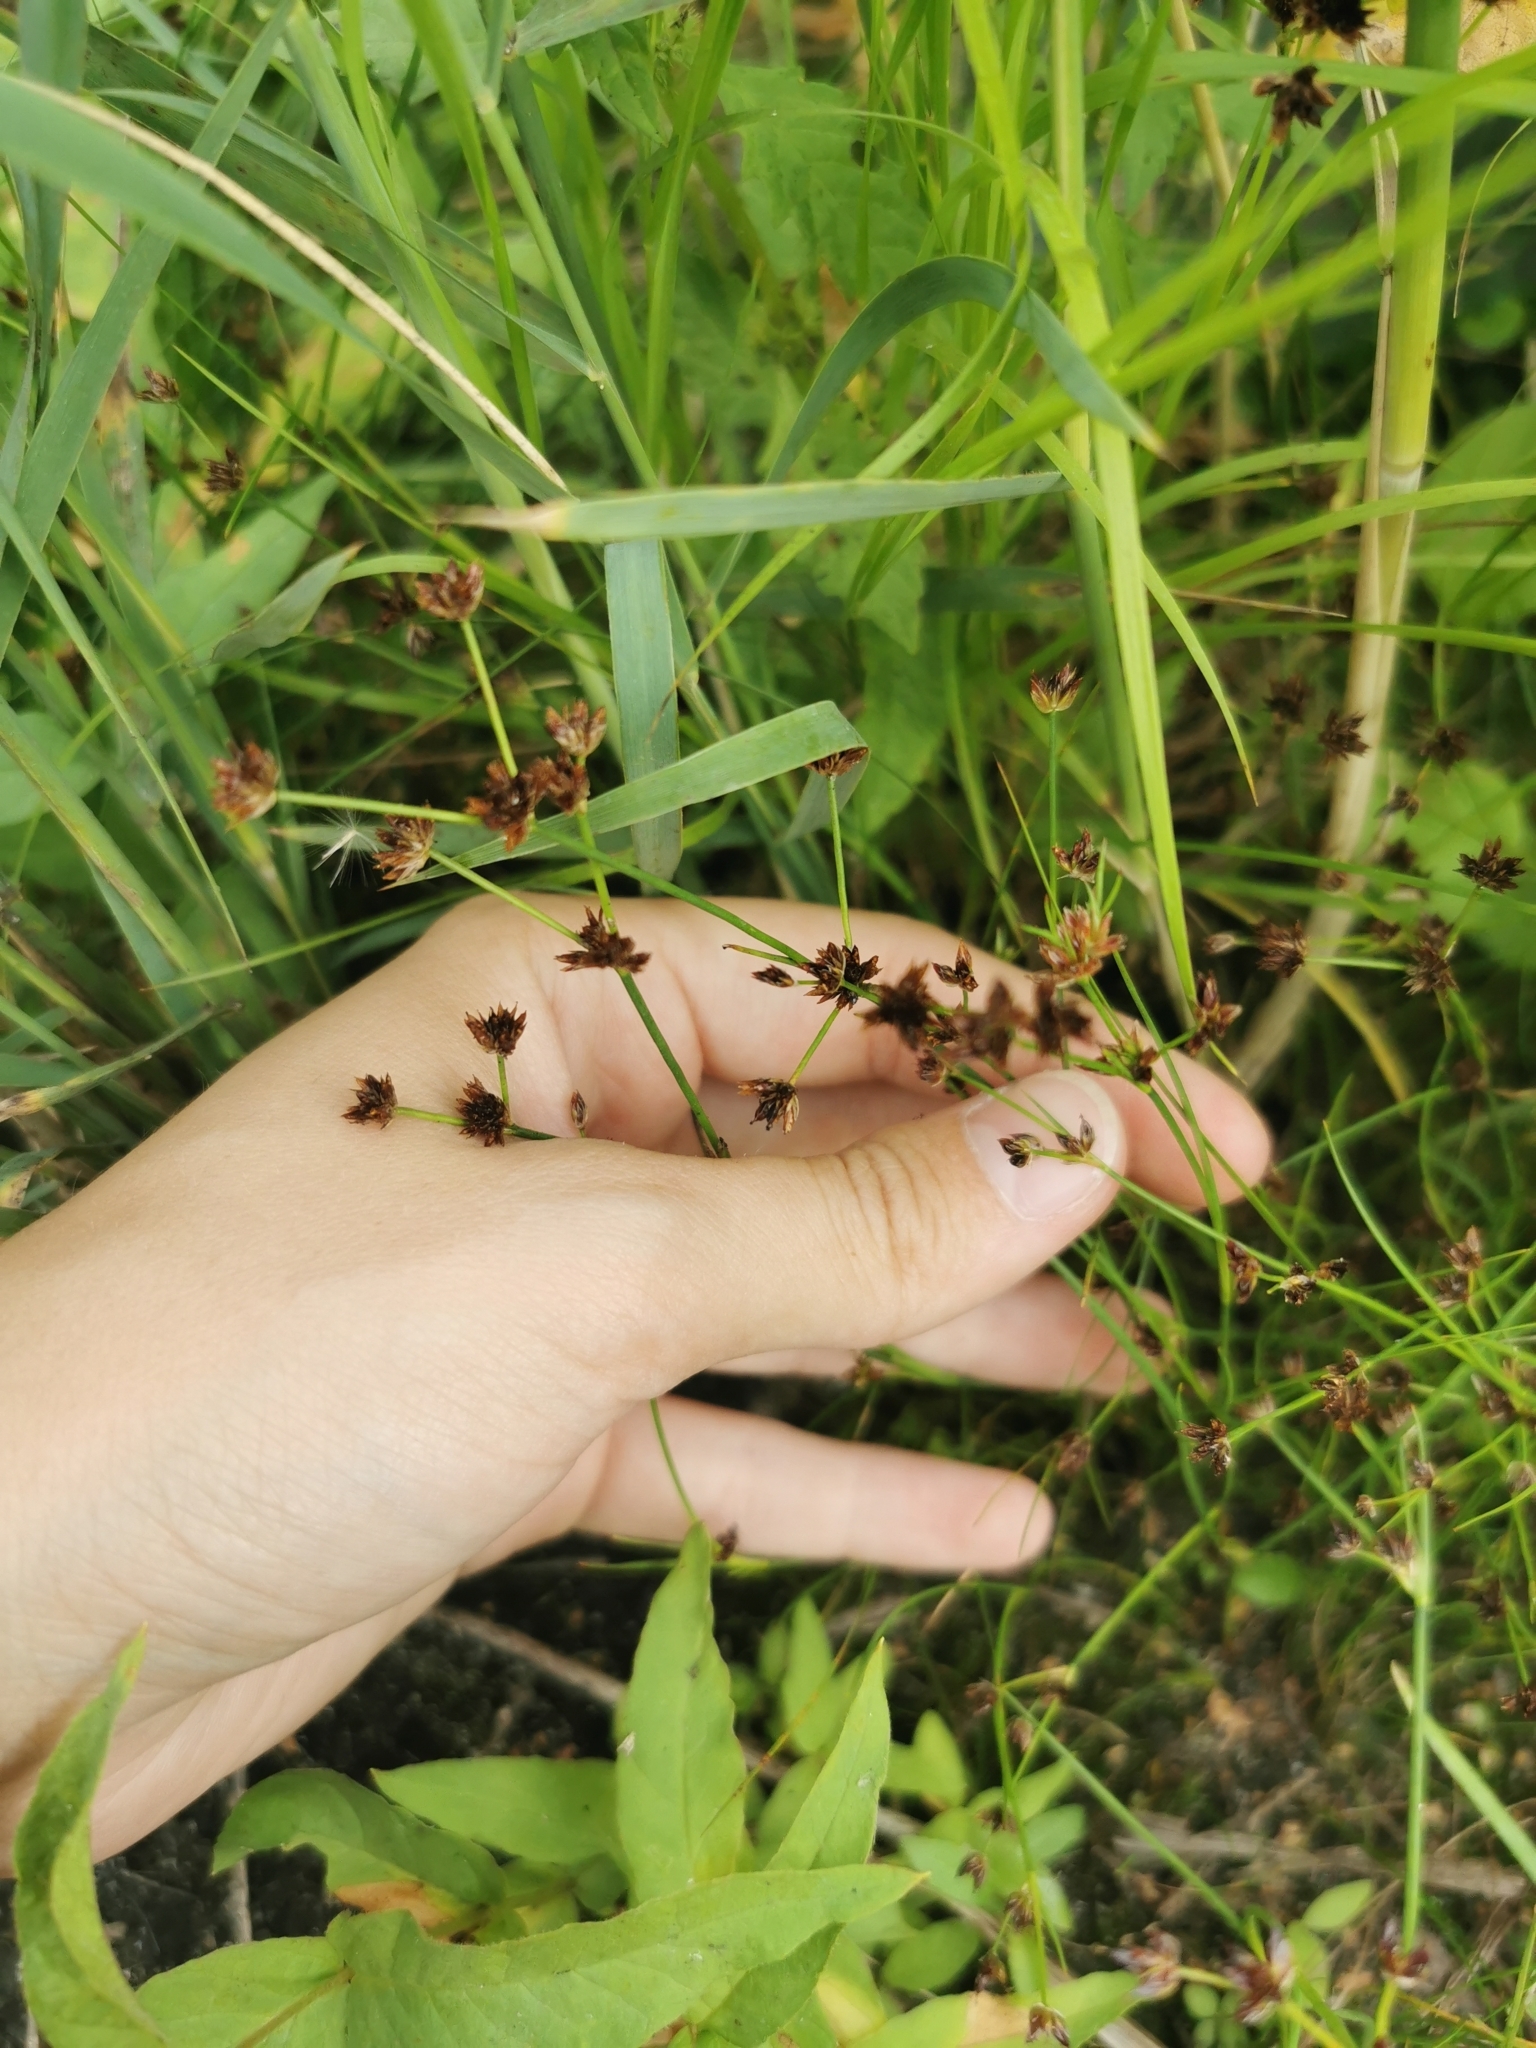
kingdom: Plantae
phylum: Tracheophyta
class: Liliopsida
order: Poales
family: Juncaceae
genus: Juncus
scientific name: Juncus articulatus
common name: Jointed rush
